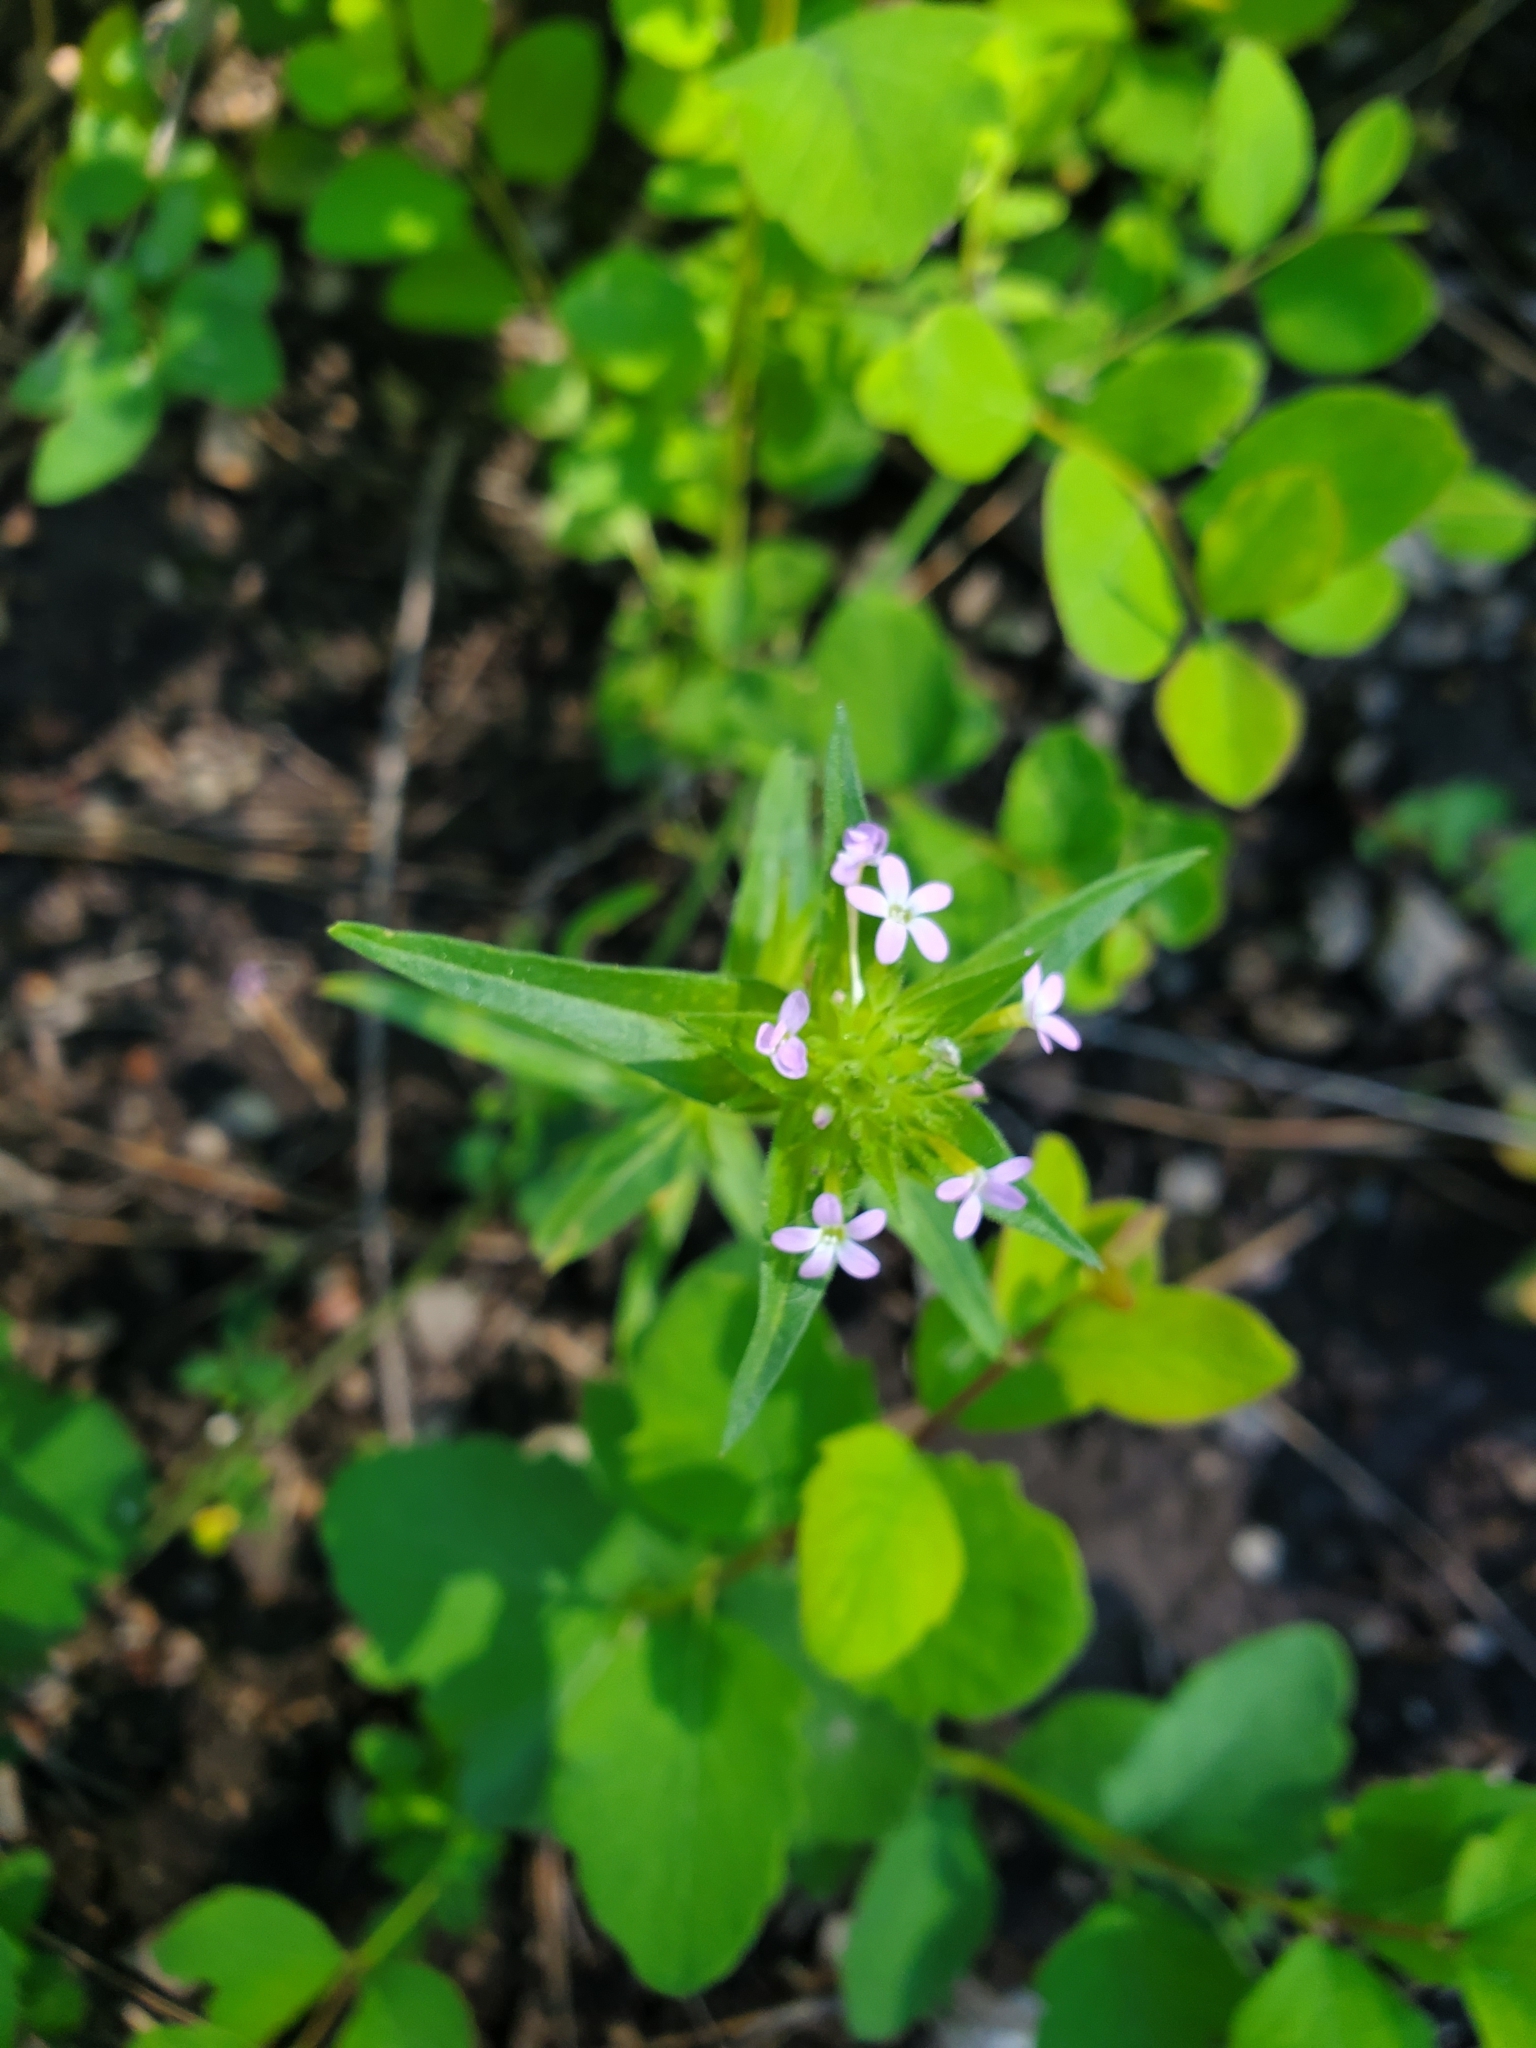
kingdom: Plantae
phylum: Tracheophyta
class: Magnoliopsida
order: Ericales
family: Polemoniaceae
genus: Collomia
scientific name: Collomia linearis
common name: Tiny trumpet
